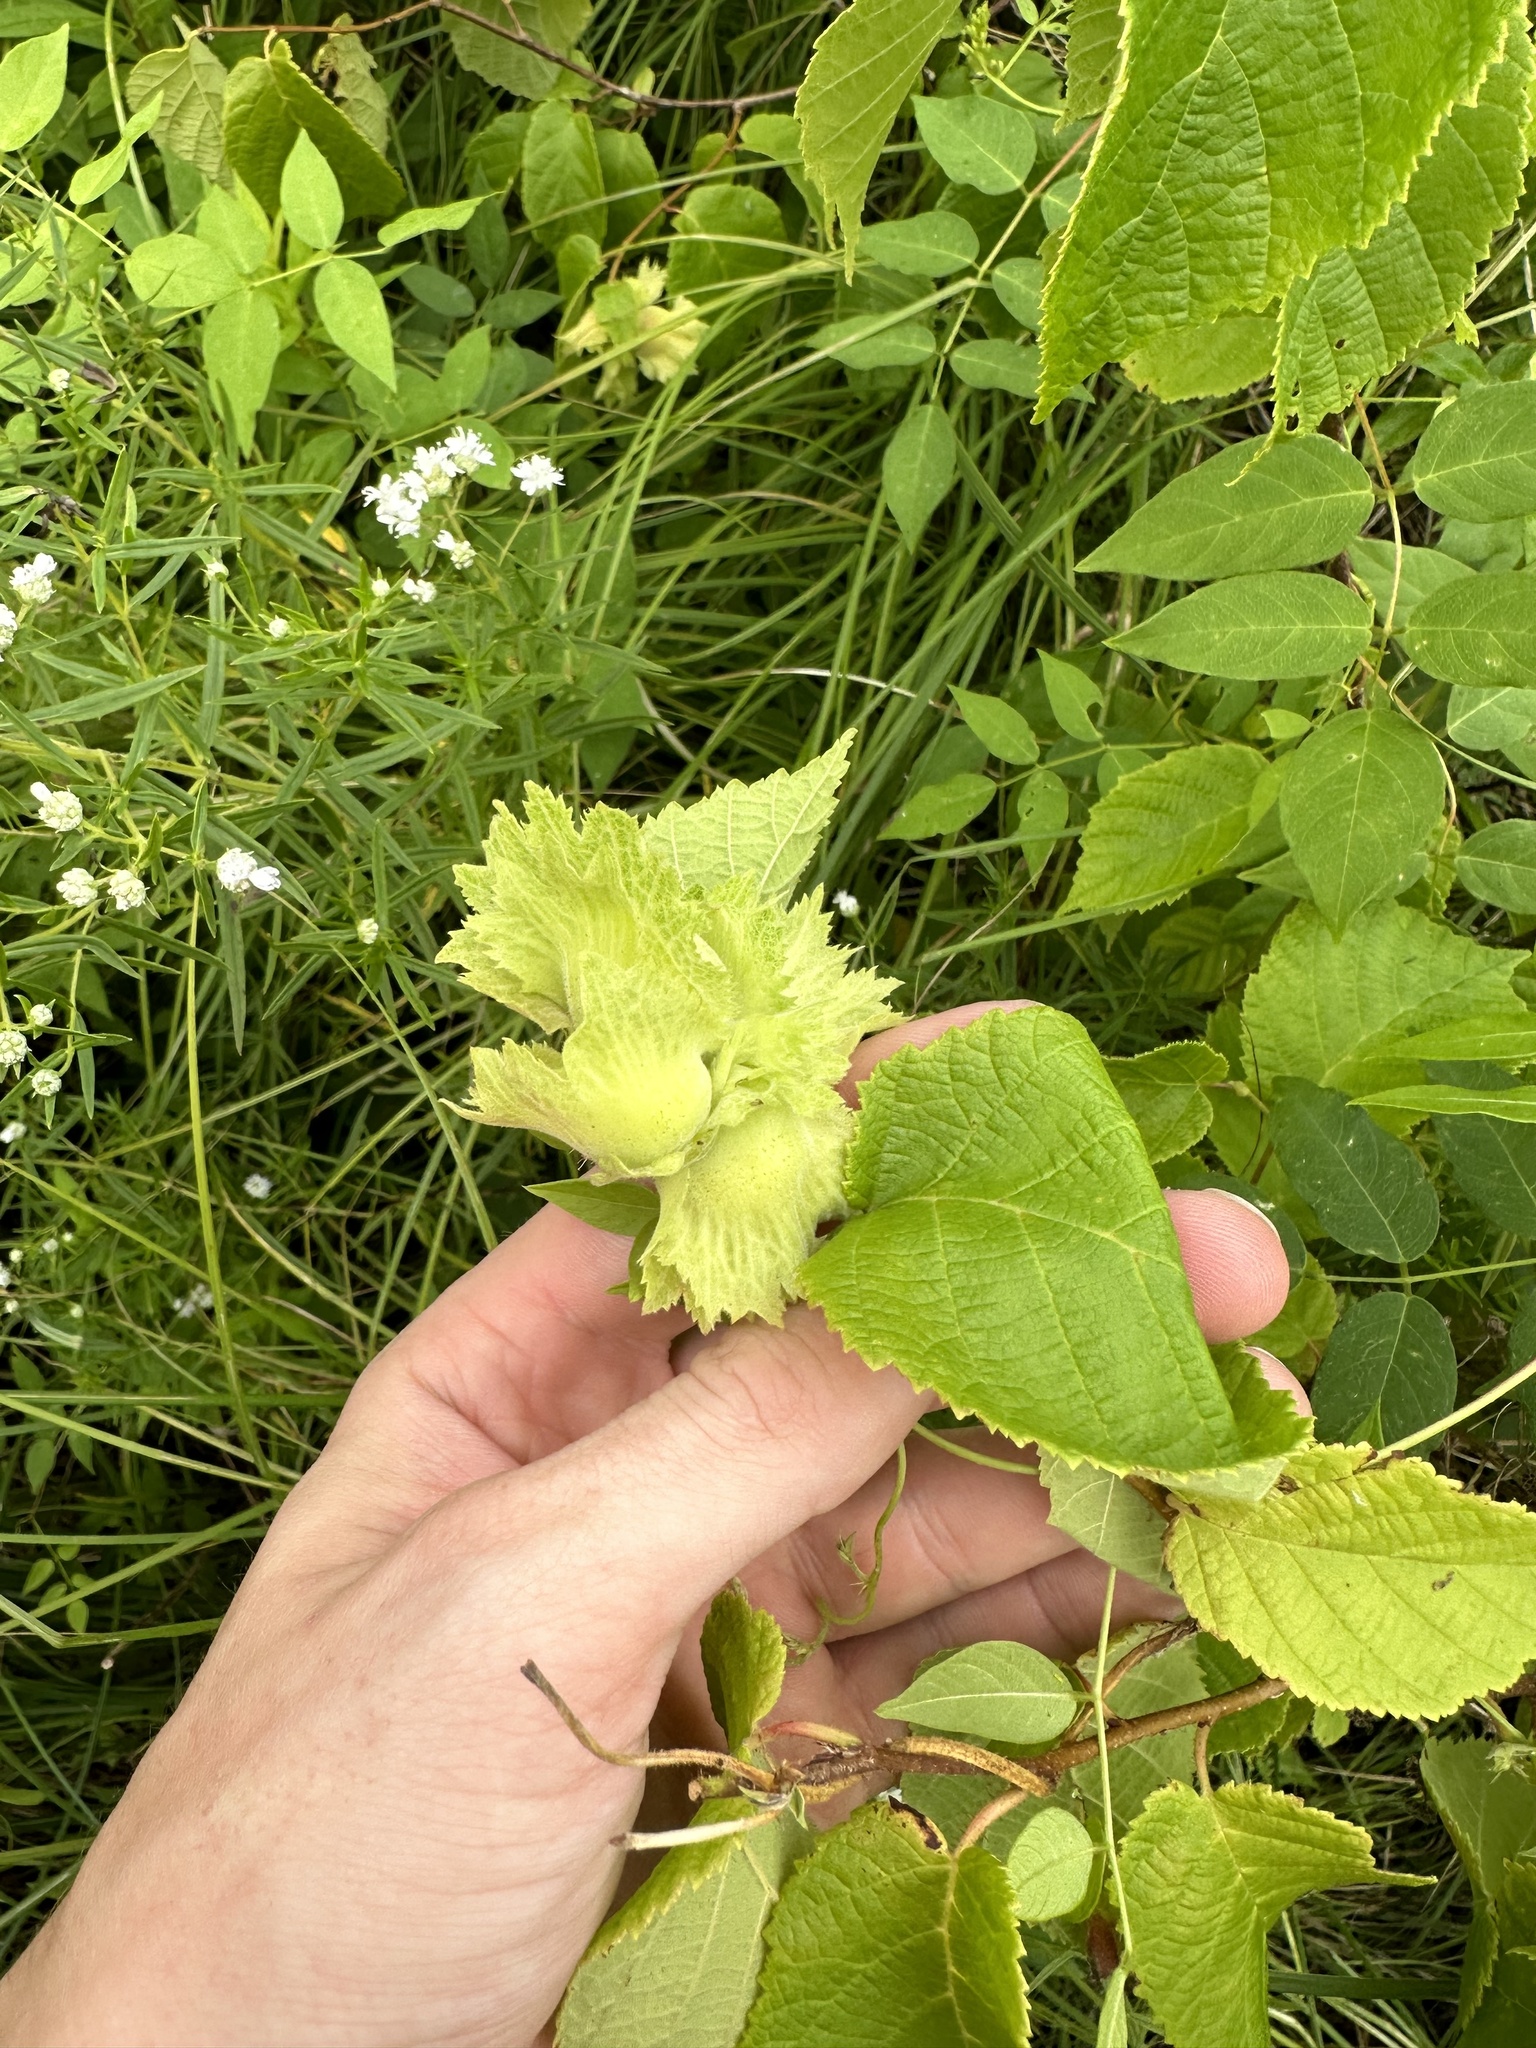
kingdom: Plantae
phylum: Tracheophyta
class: Magnoliopsida
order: Fagales
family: Betulaceae
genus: Corylus
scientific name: Corylus americana
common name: American hazel
